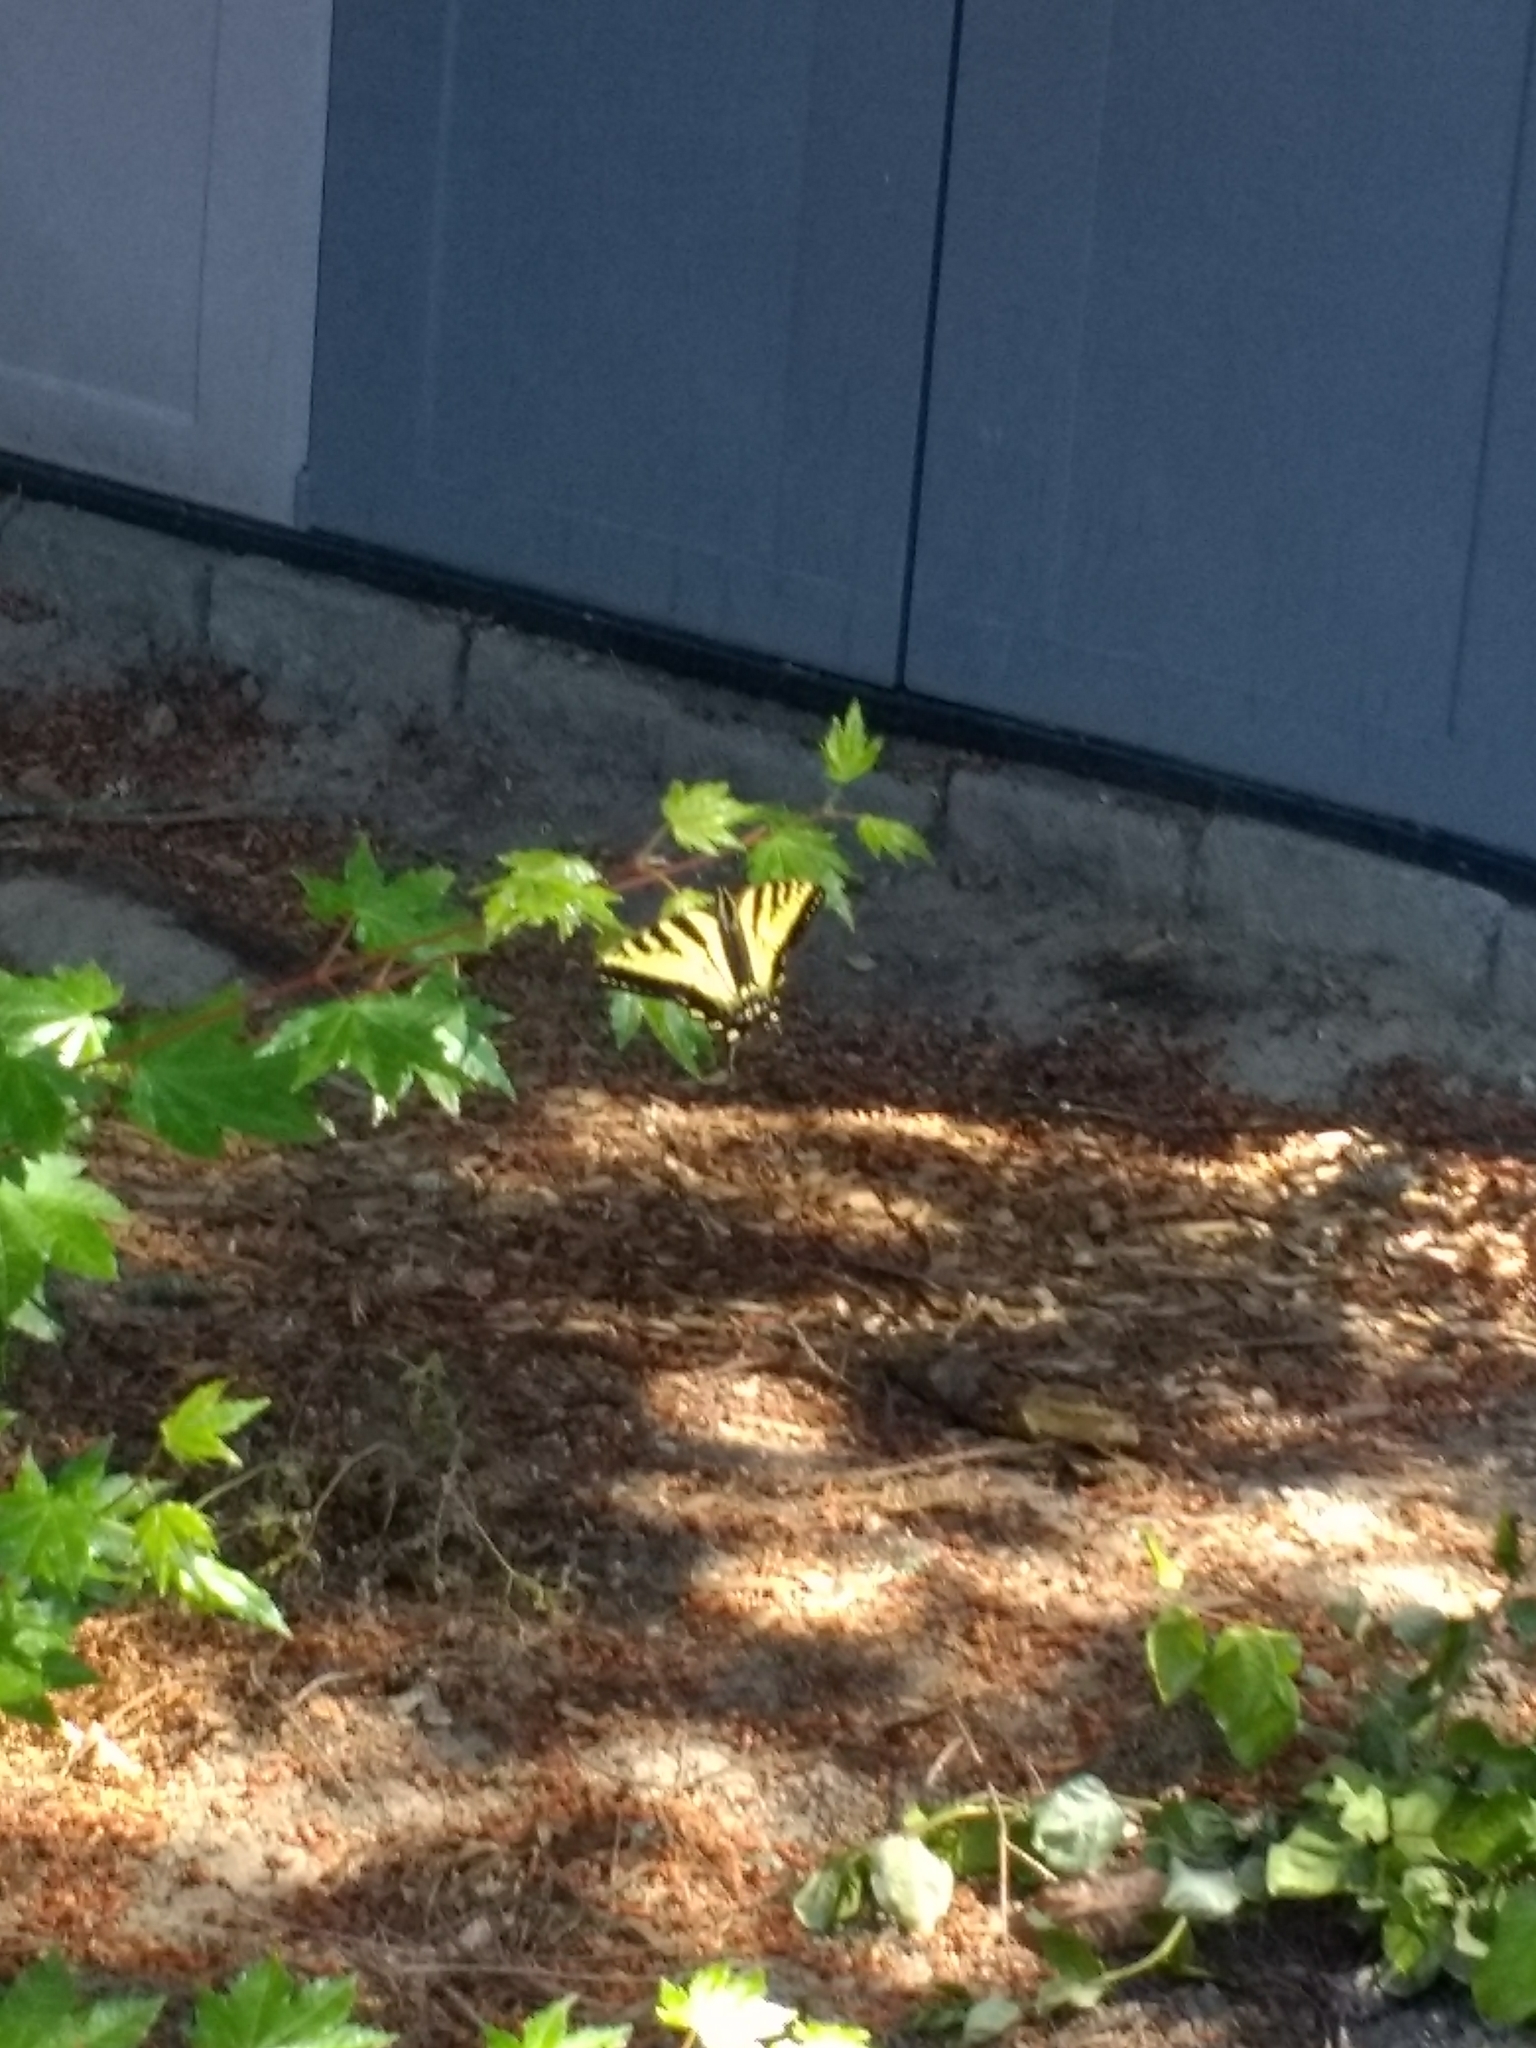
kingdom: Animalia
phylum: Arthropoda
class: Insecta
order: Lepidoptera
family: Papilionidae
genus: Papilio
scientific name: Papilio rutulus
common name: Western tiger swallowtail
